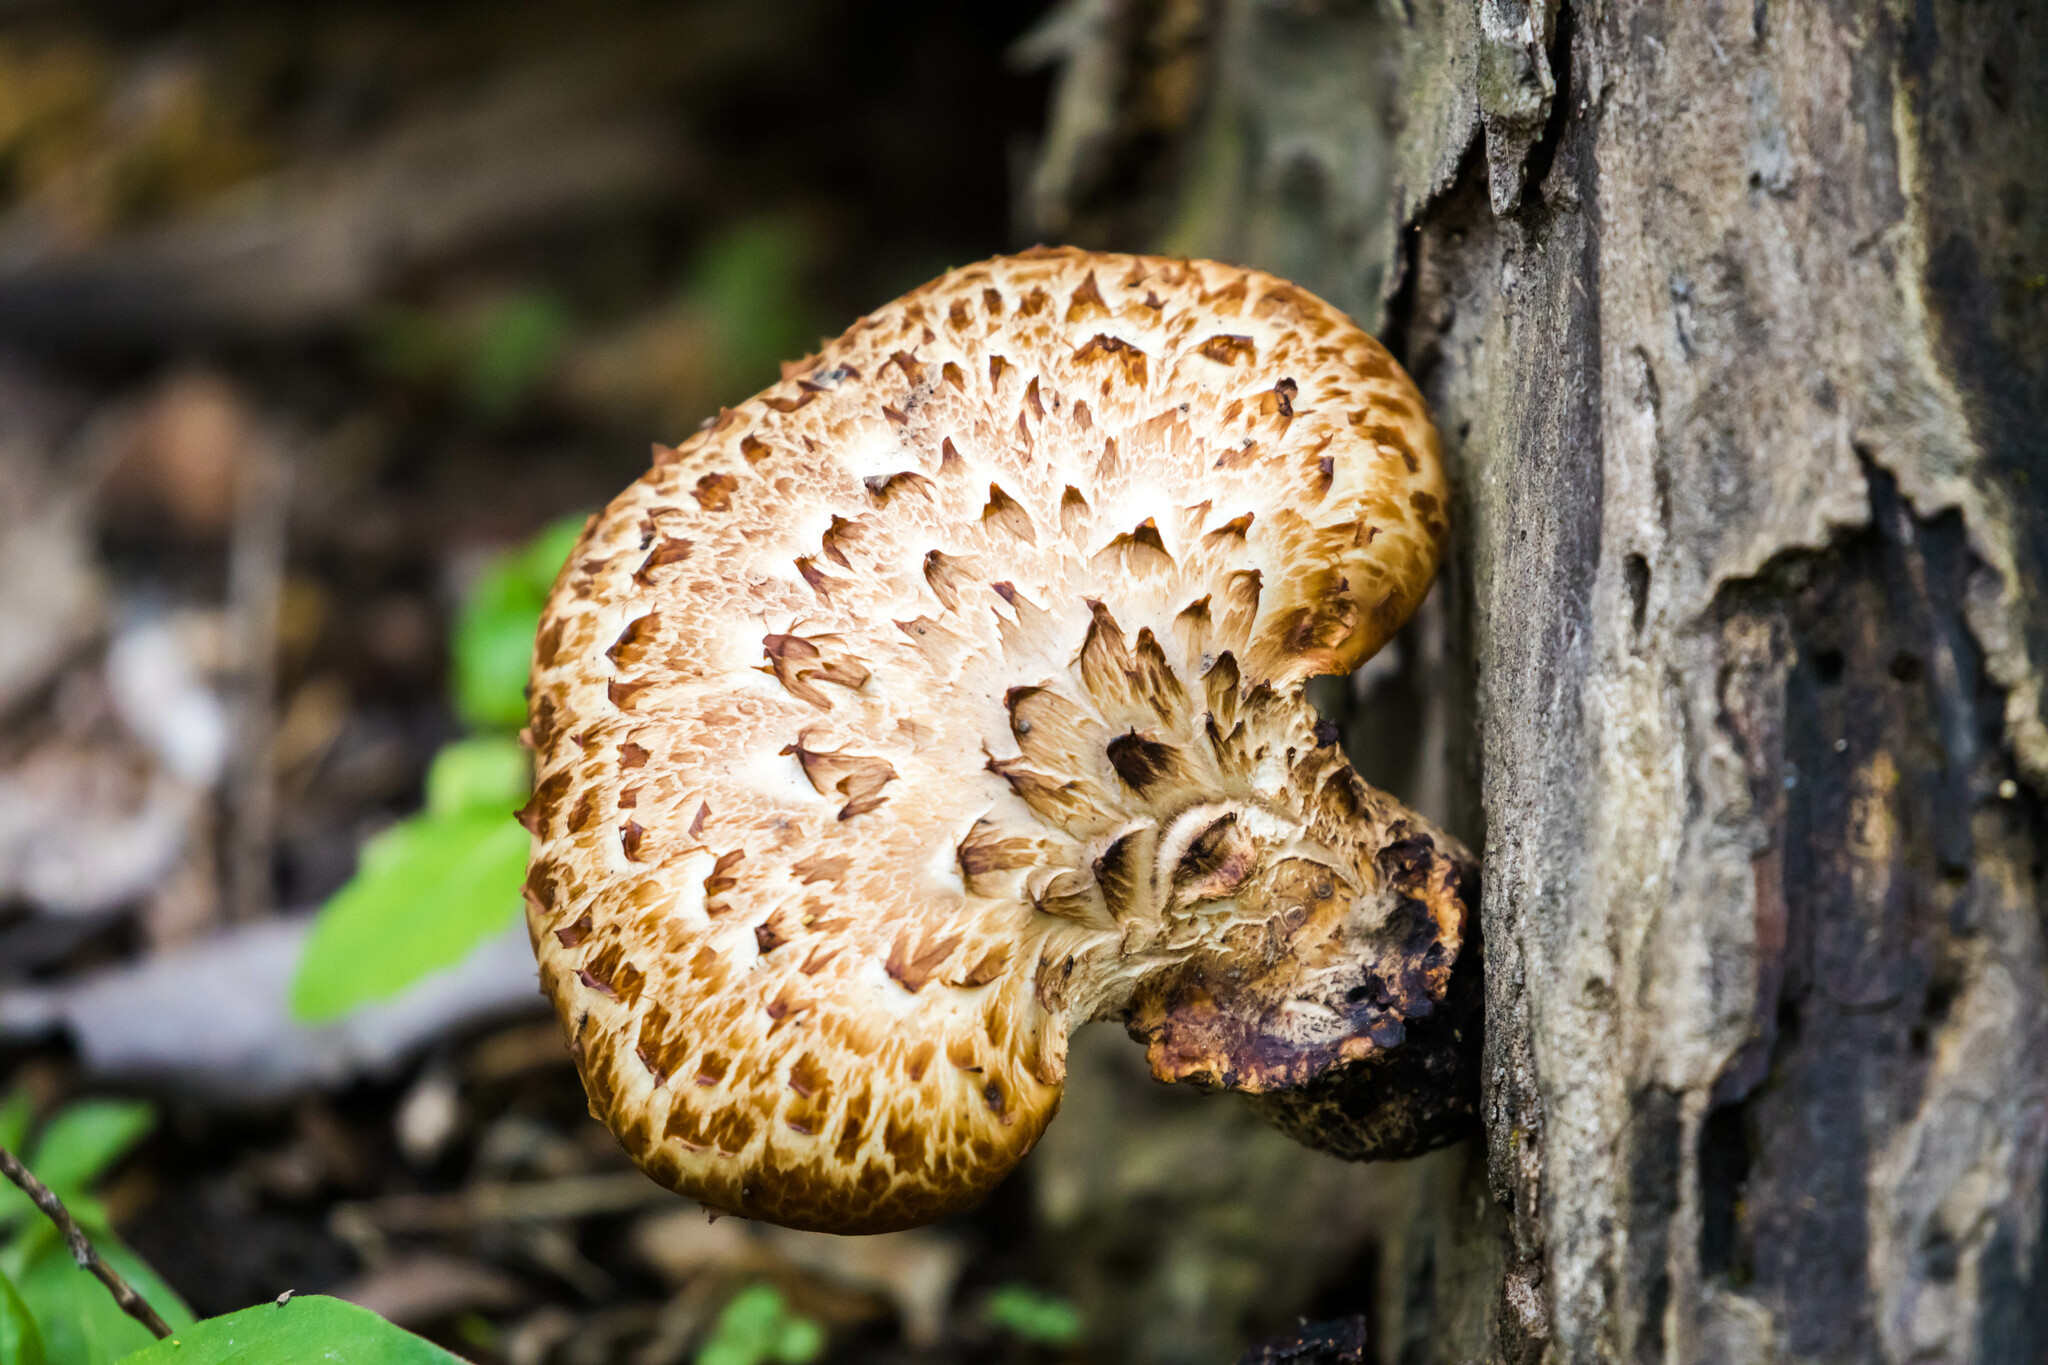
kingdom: Fungi
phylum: Basidiomycota
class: Agaricomycetes
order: Polyporales
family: Polyporaceae
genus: Cerioporus
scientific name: Cerioporus squamosus
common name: Dryad's saddle
